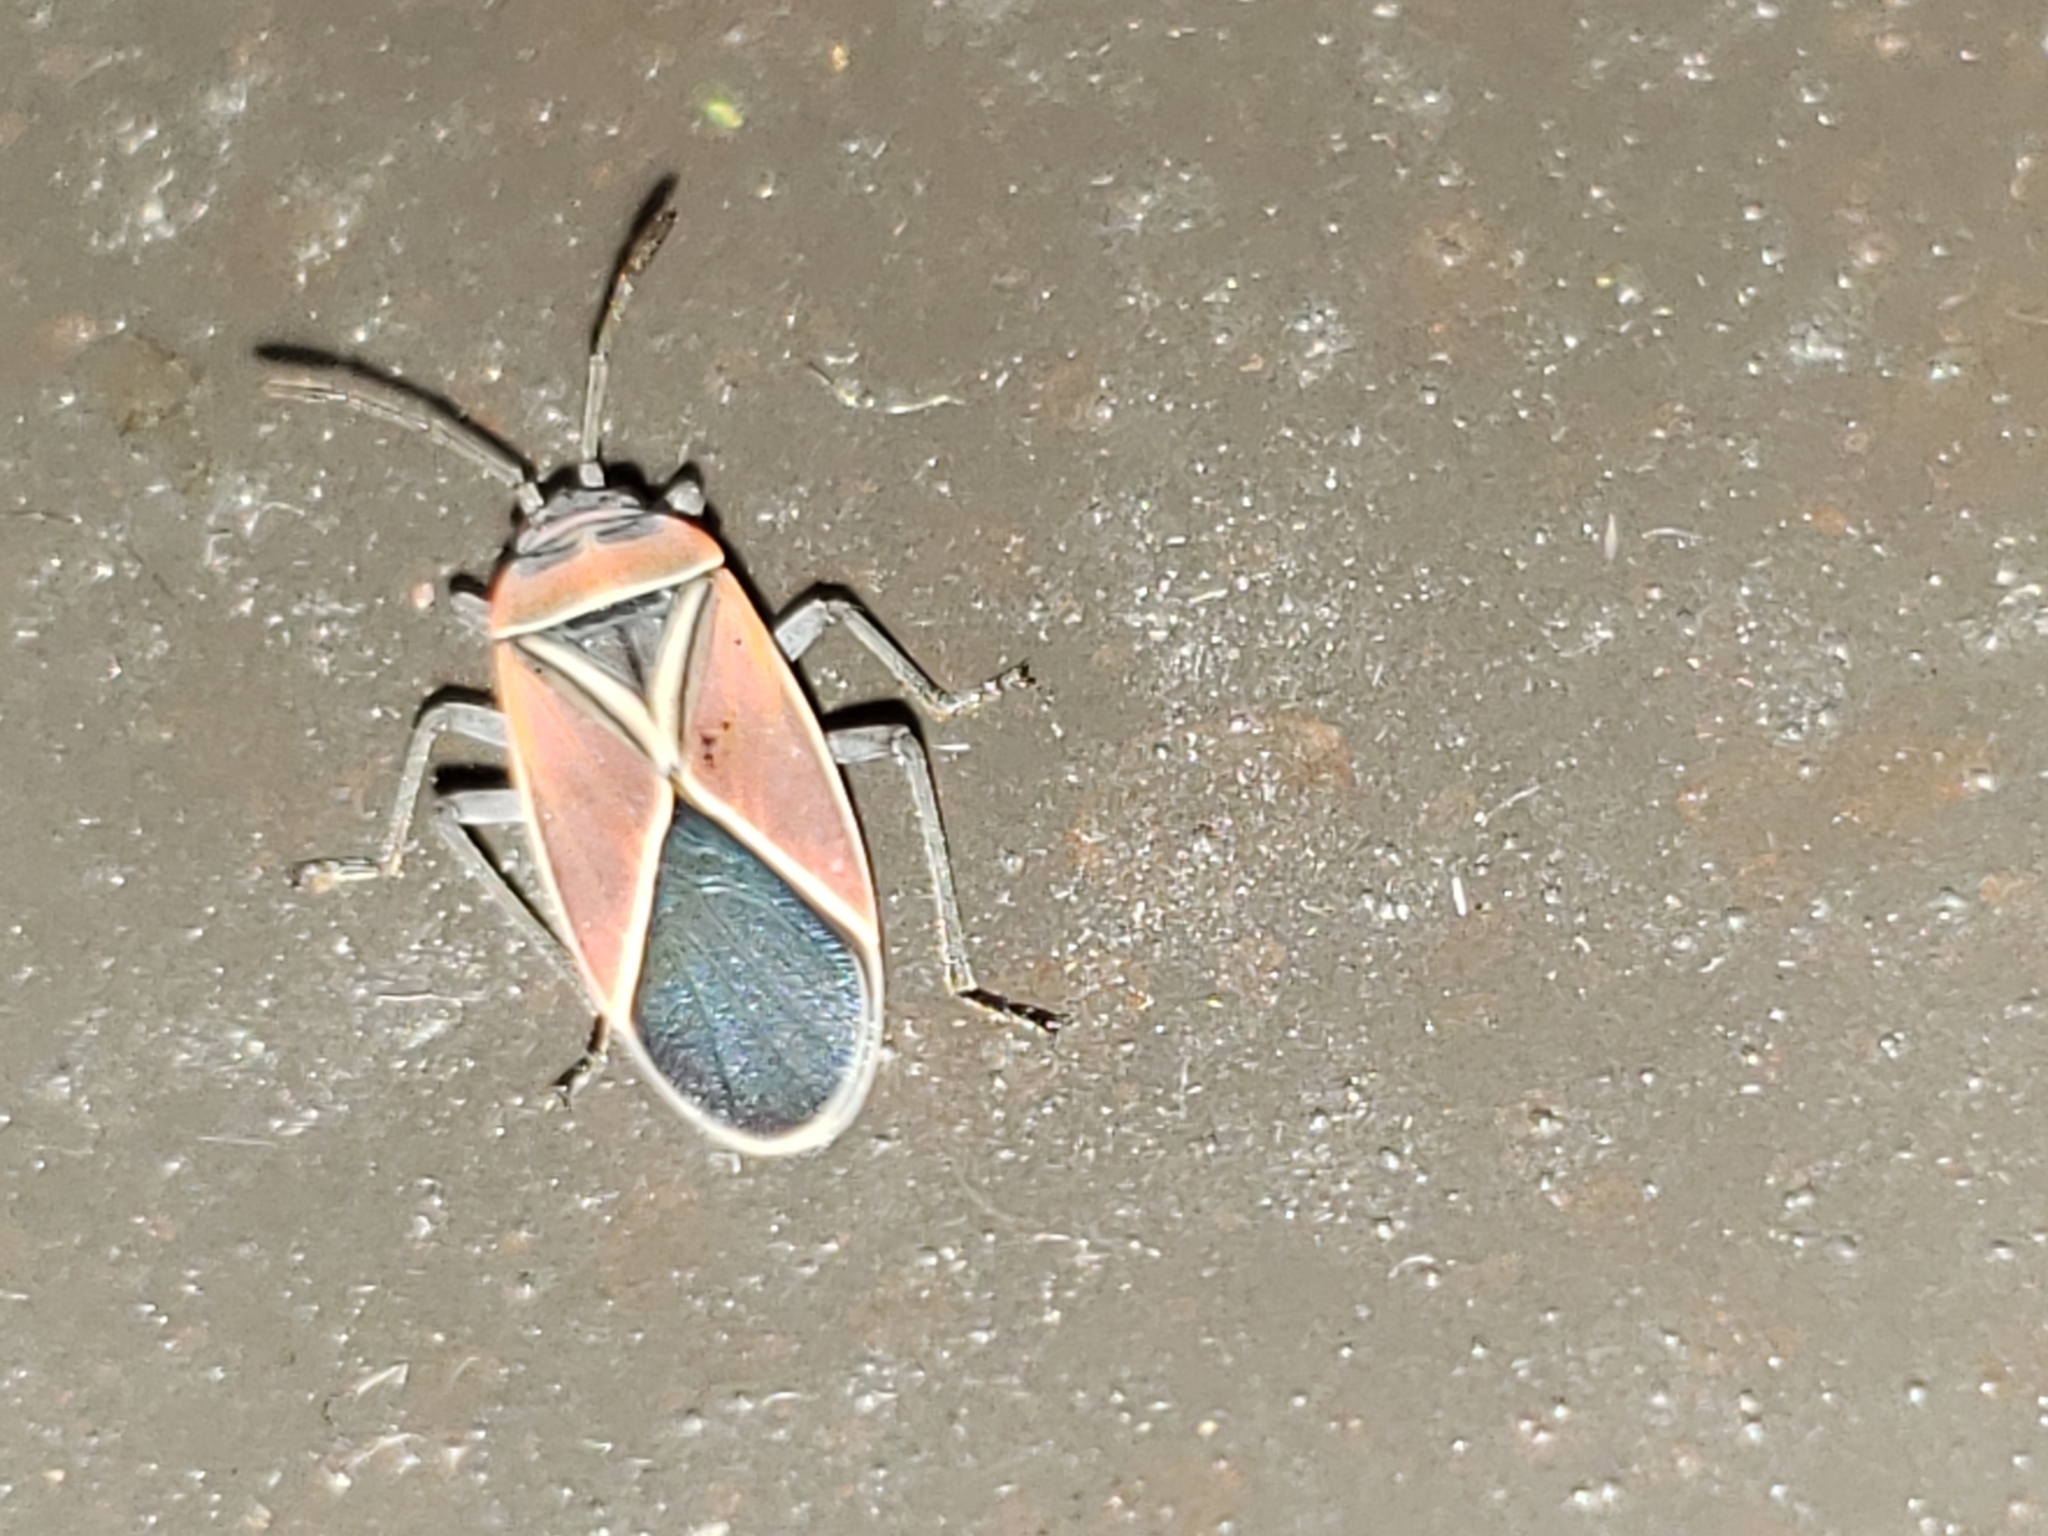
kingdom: Animalia
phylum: Arthropoda
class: Insecta
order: Hemiptera
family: Lygaeidae
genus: Neacoryphus
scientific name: Neacoryphus bicrucis
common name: Lygaeid bug
